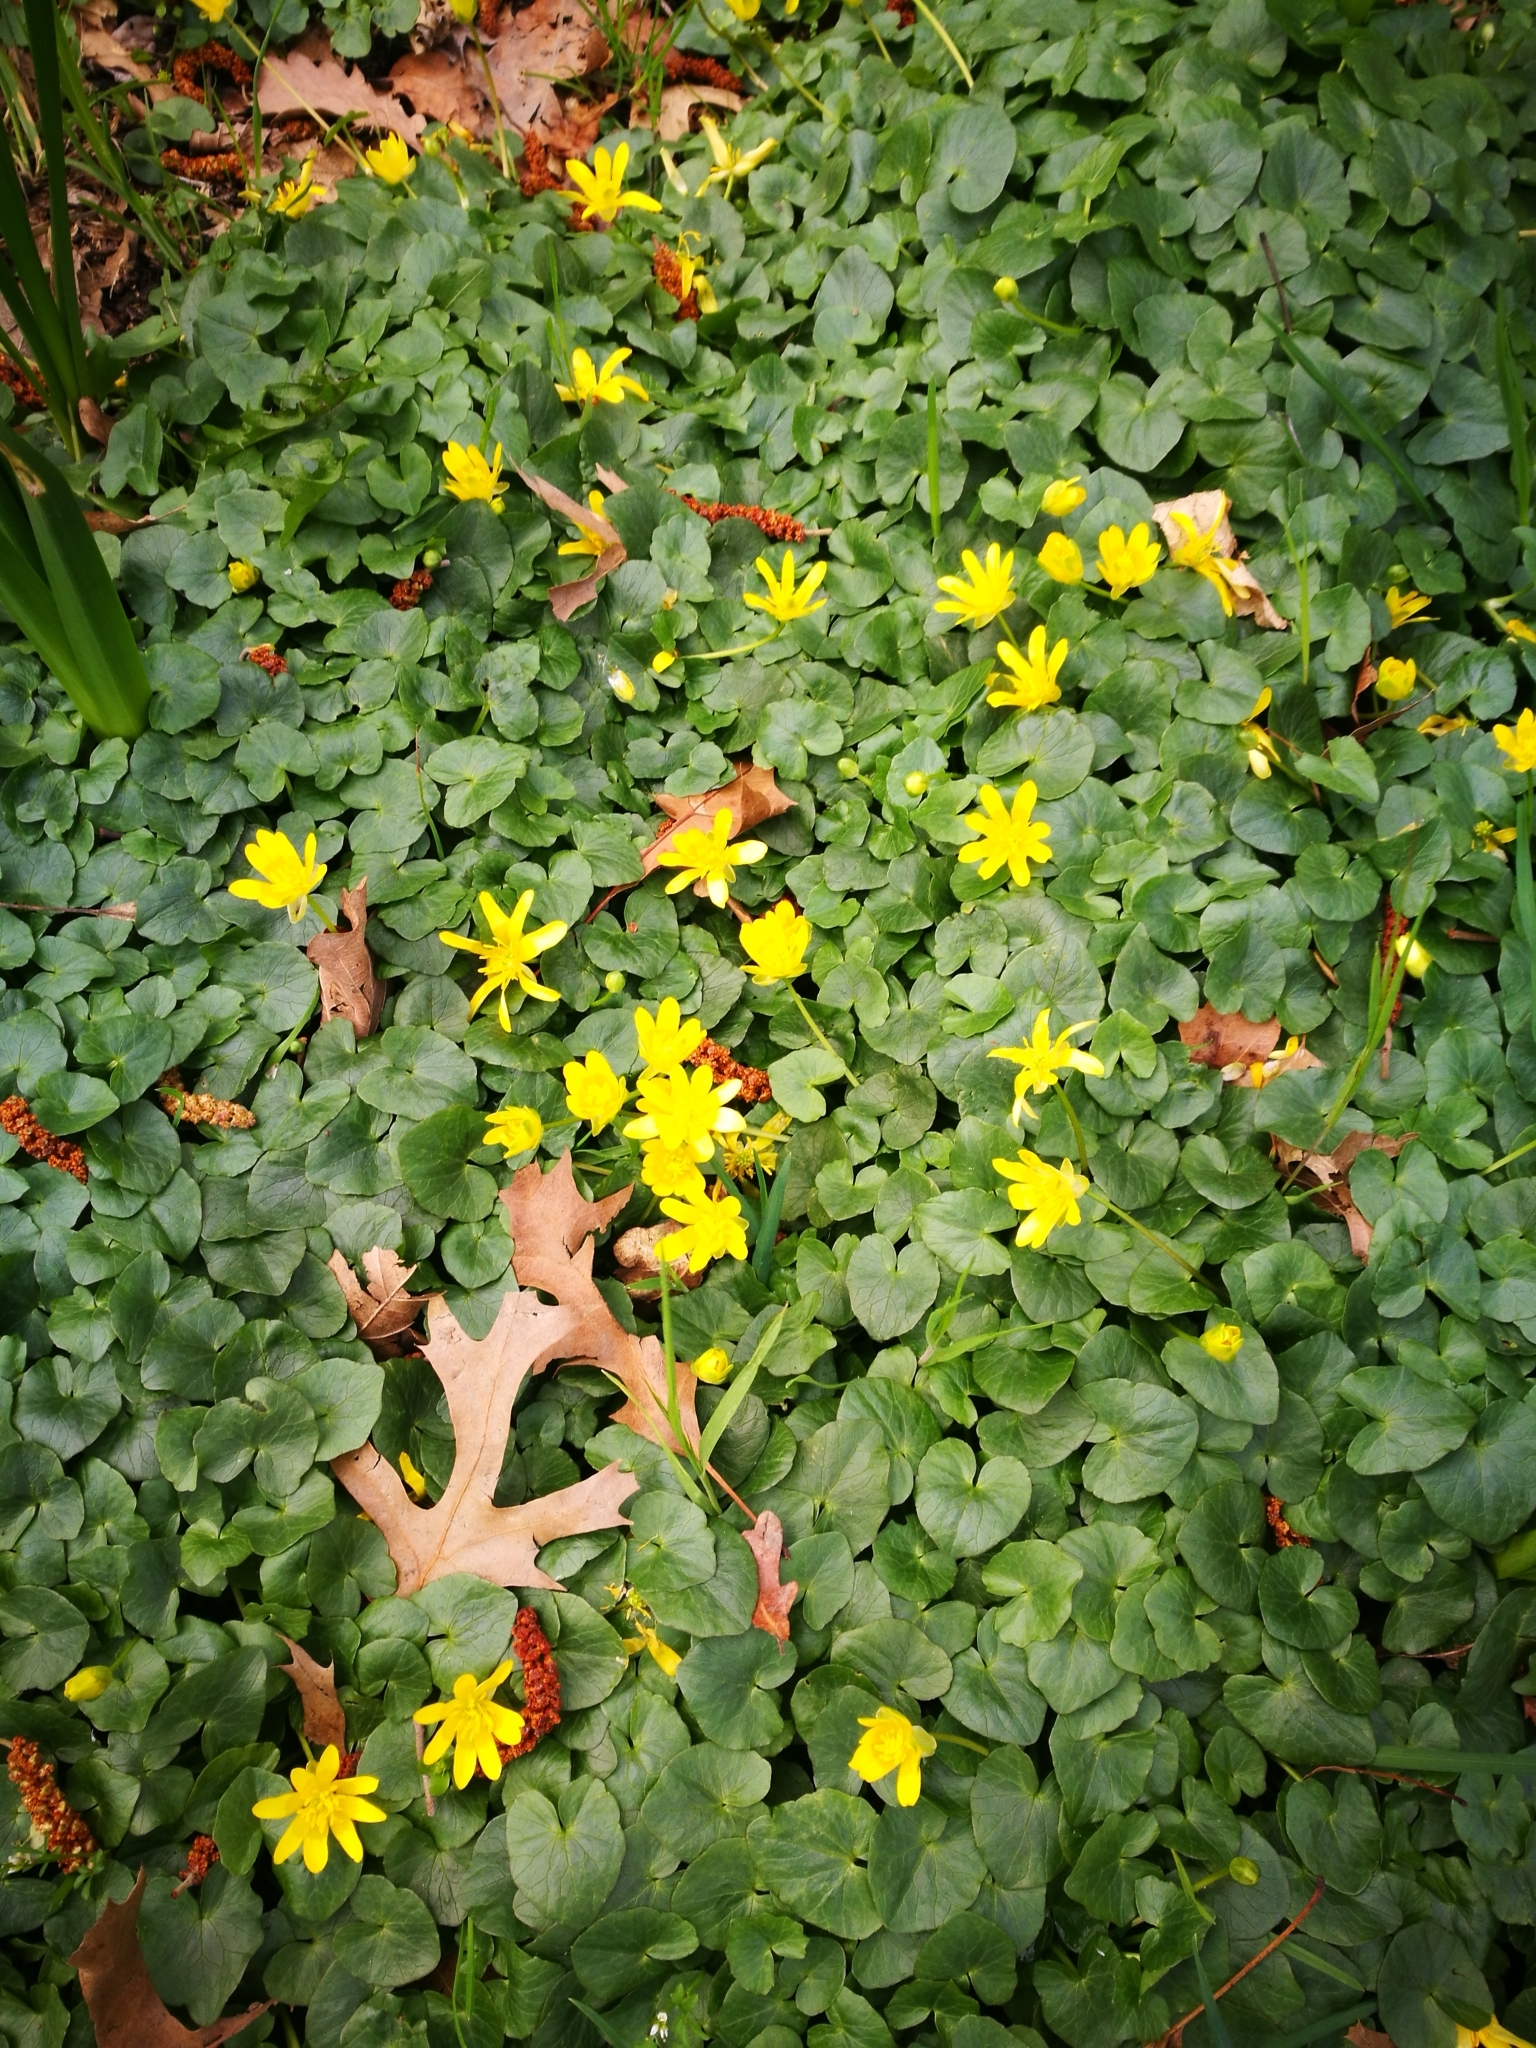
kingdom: Plantae
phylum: Tracheophyta
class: Magnoliopsida
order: Ranunculales
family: Ranunculaceae
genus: Ficaria
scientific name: Ficaria verna
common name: Lesser celandine
